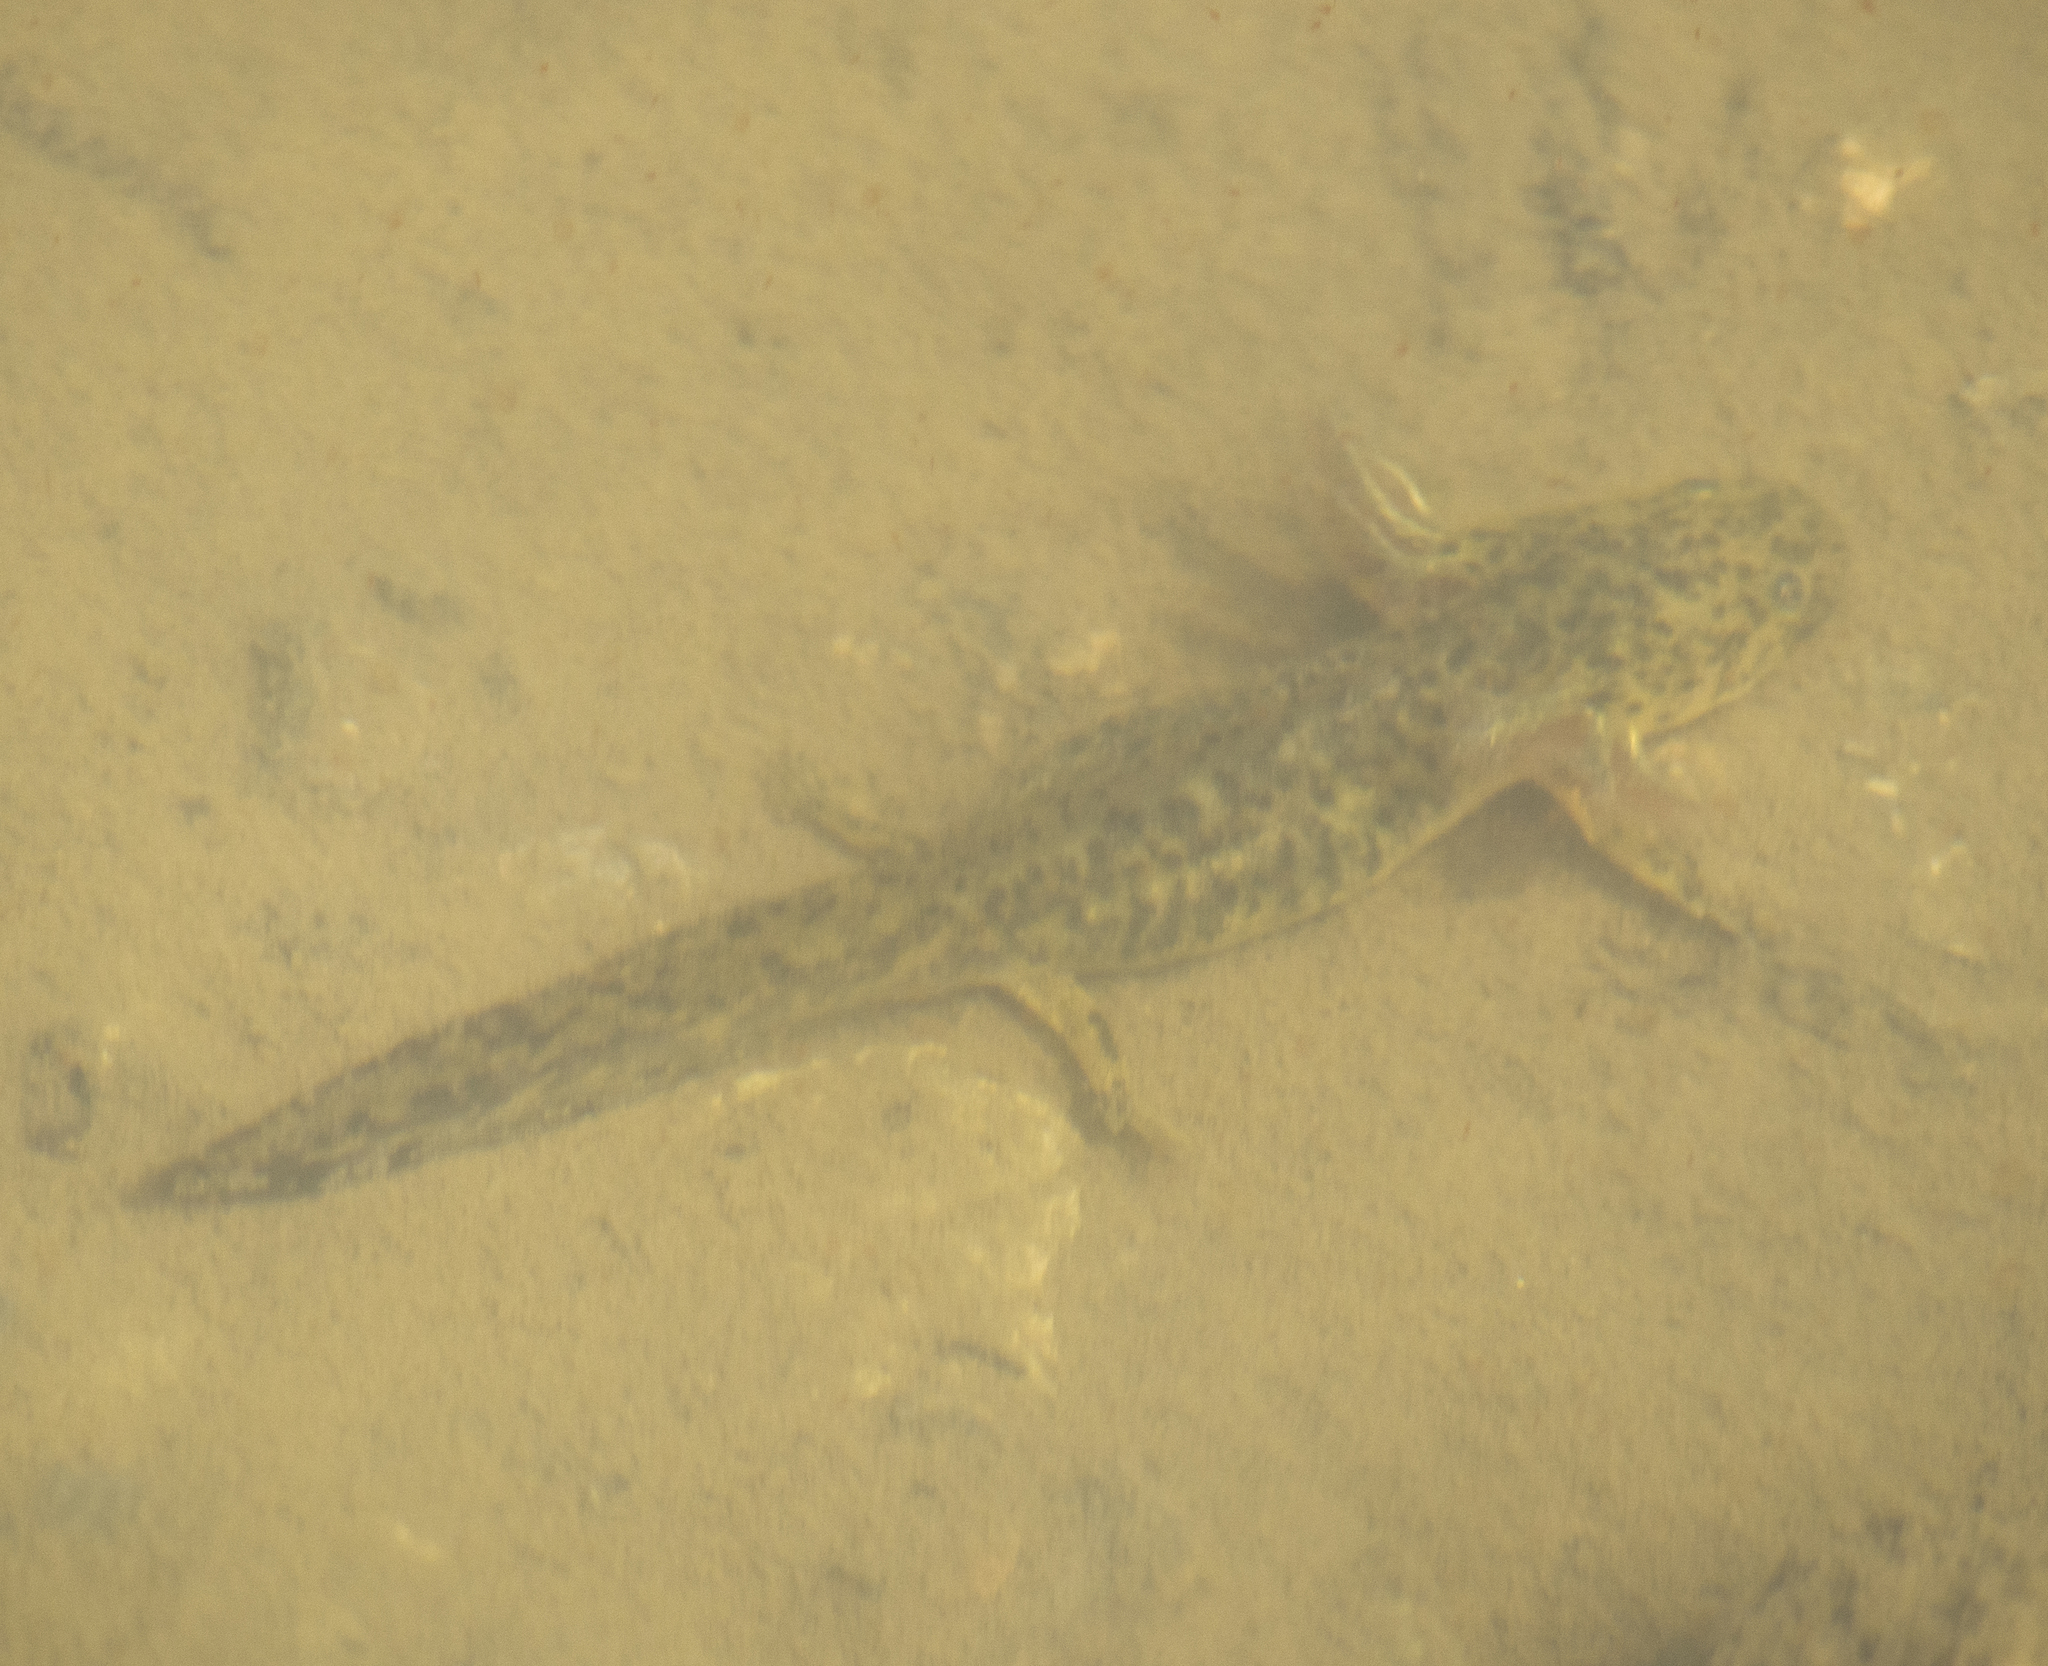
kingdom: Animalia
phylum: Chordata
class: Amphibia
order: Caudata
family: Ambystomatidae
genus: Ambystoma
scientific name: Ambystoma mavortium
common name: Western tiger salamander
